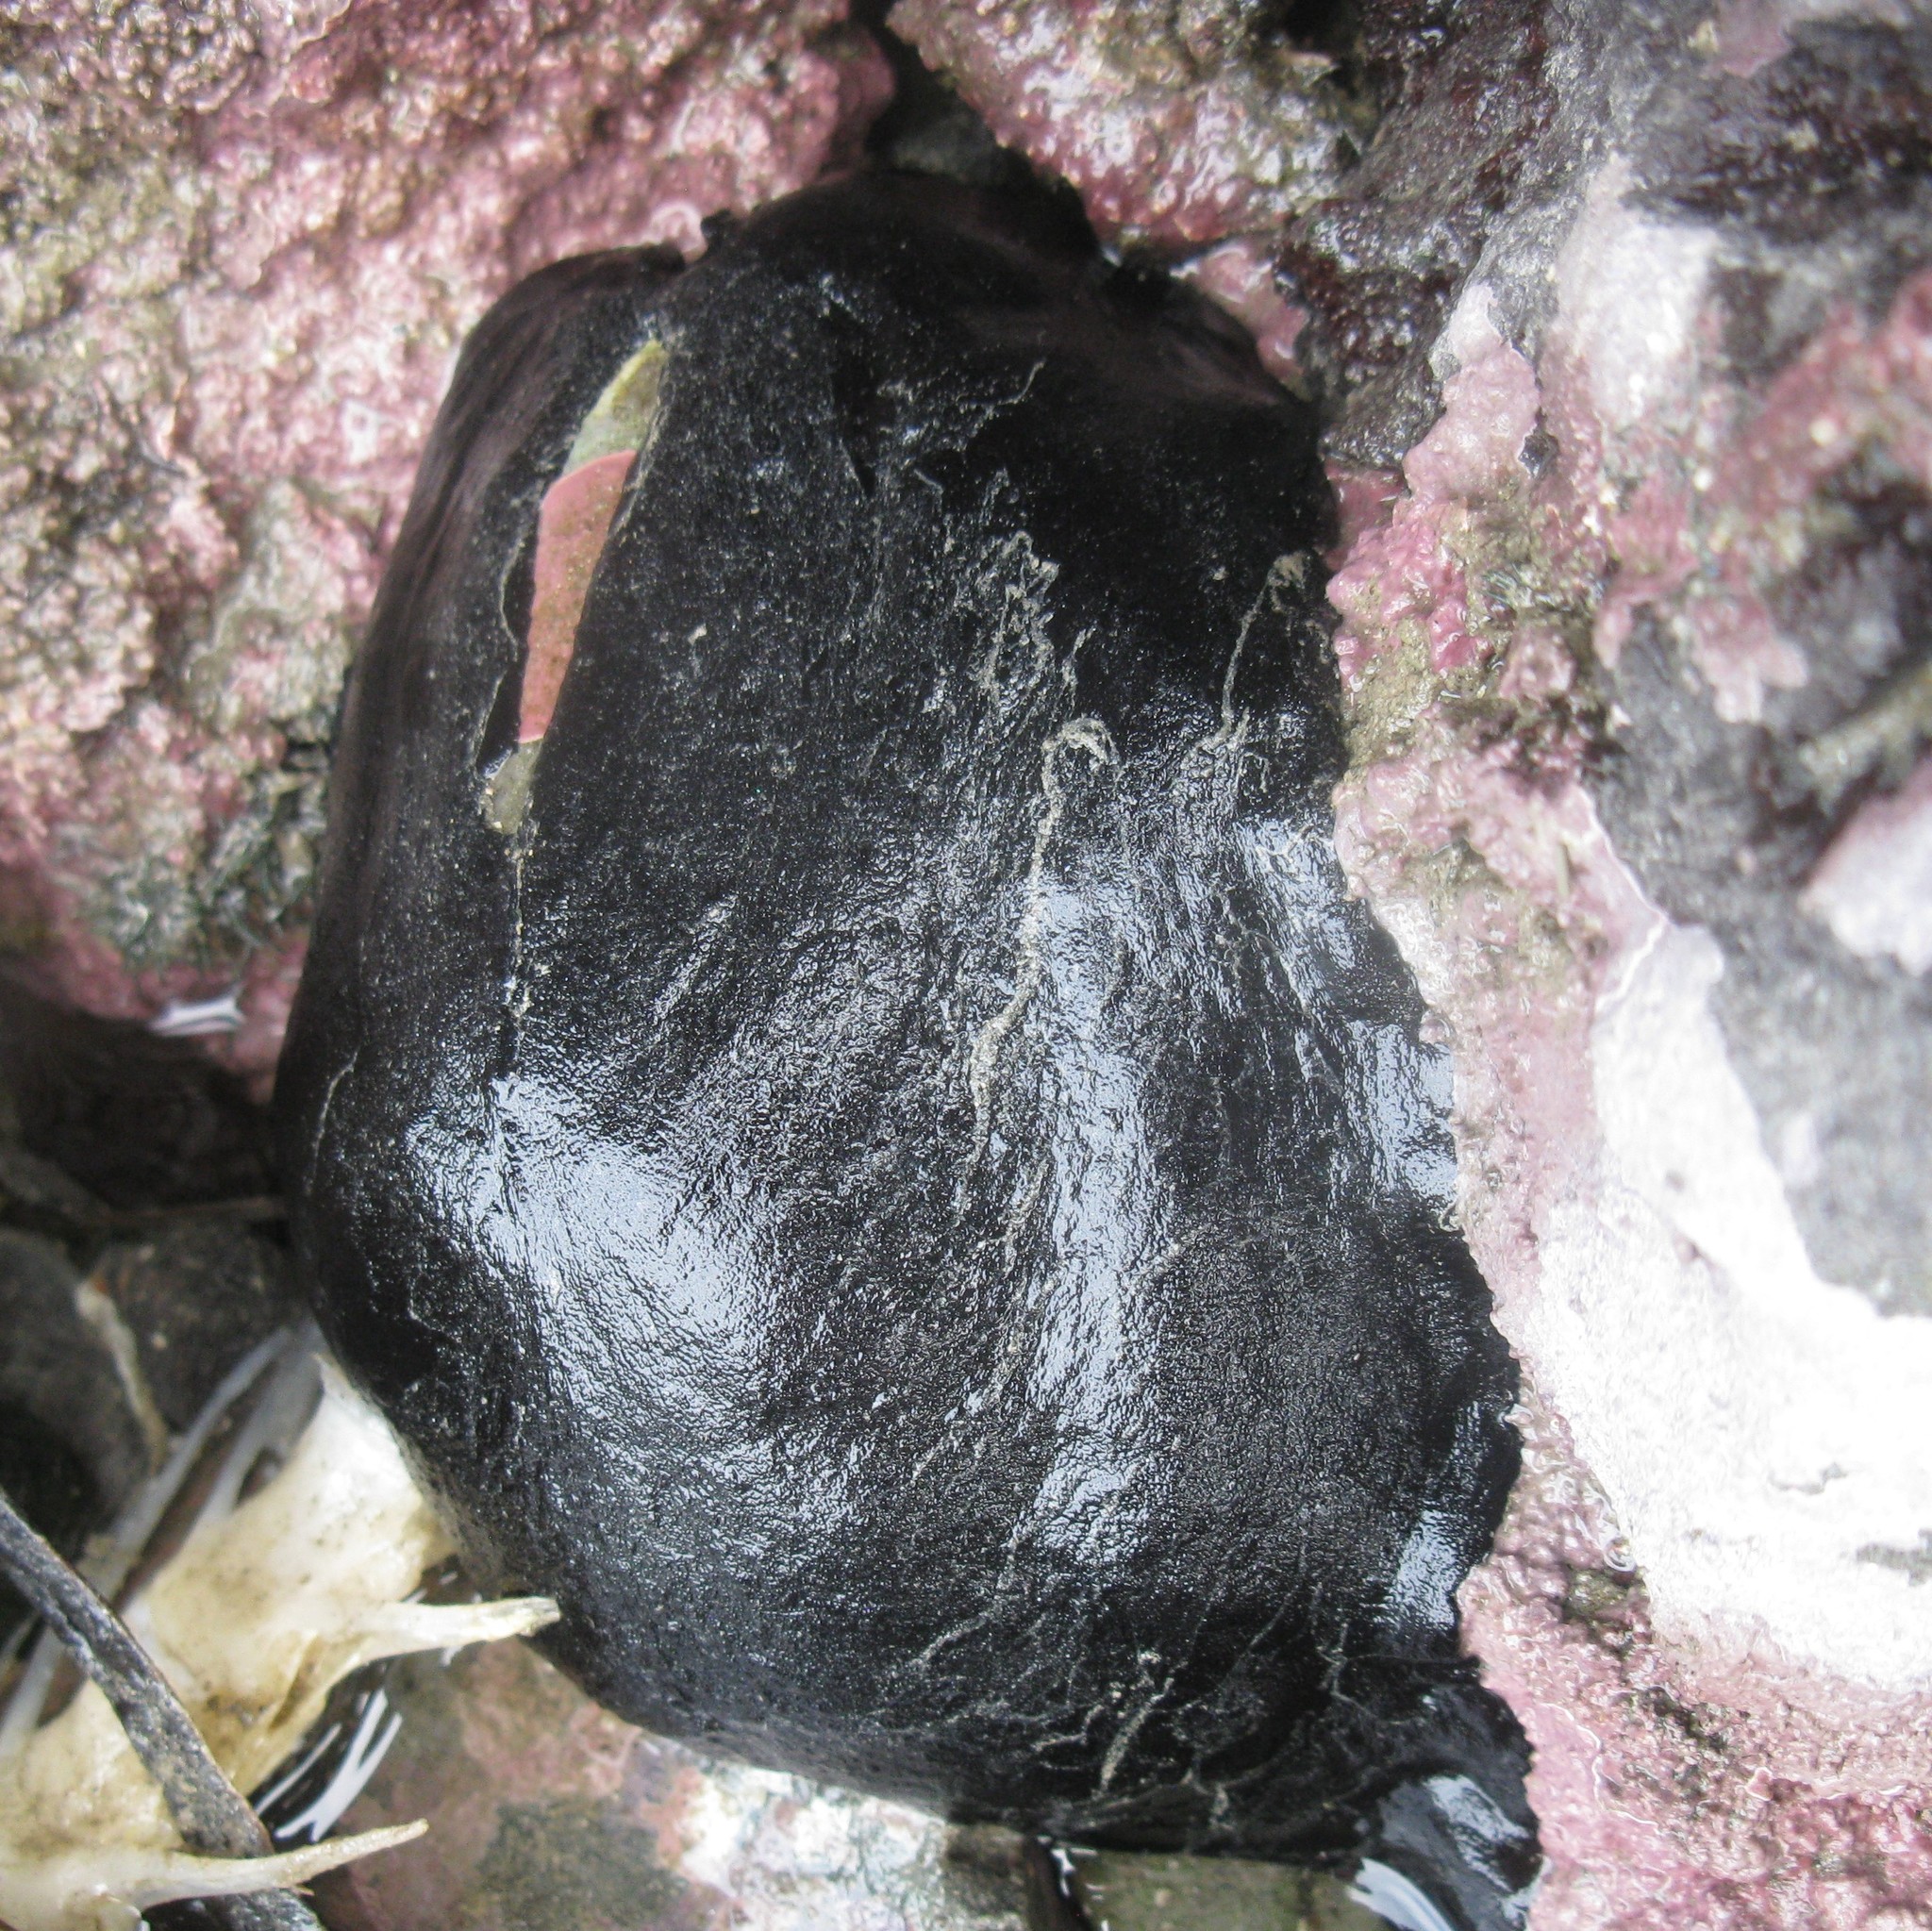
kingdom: Animalia
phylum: Mollusca
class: Gastropoda
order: Lepetellida
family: Fissurellidae
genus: Scutus
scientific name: Scutus breviculus
